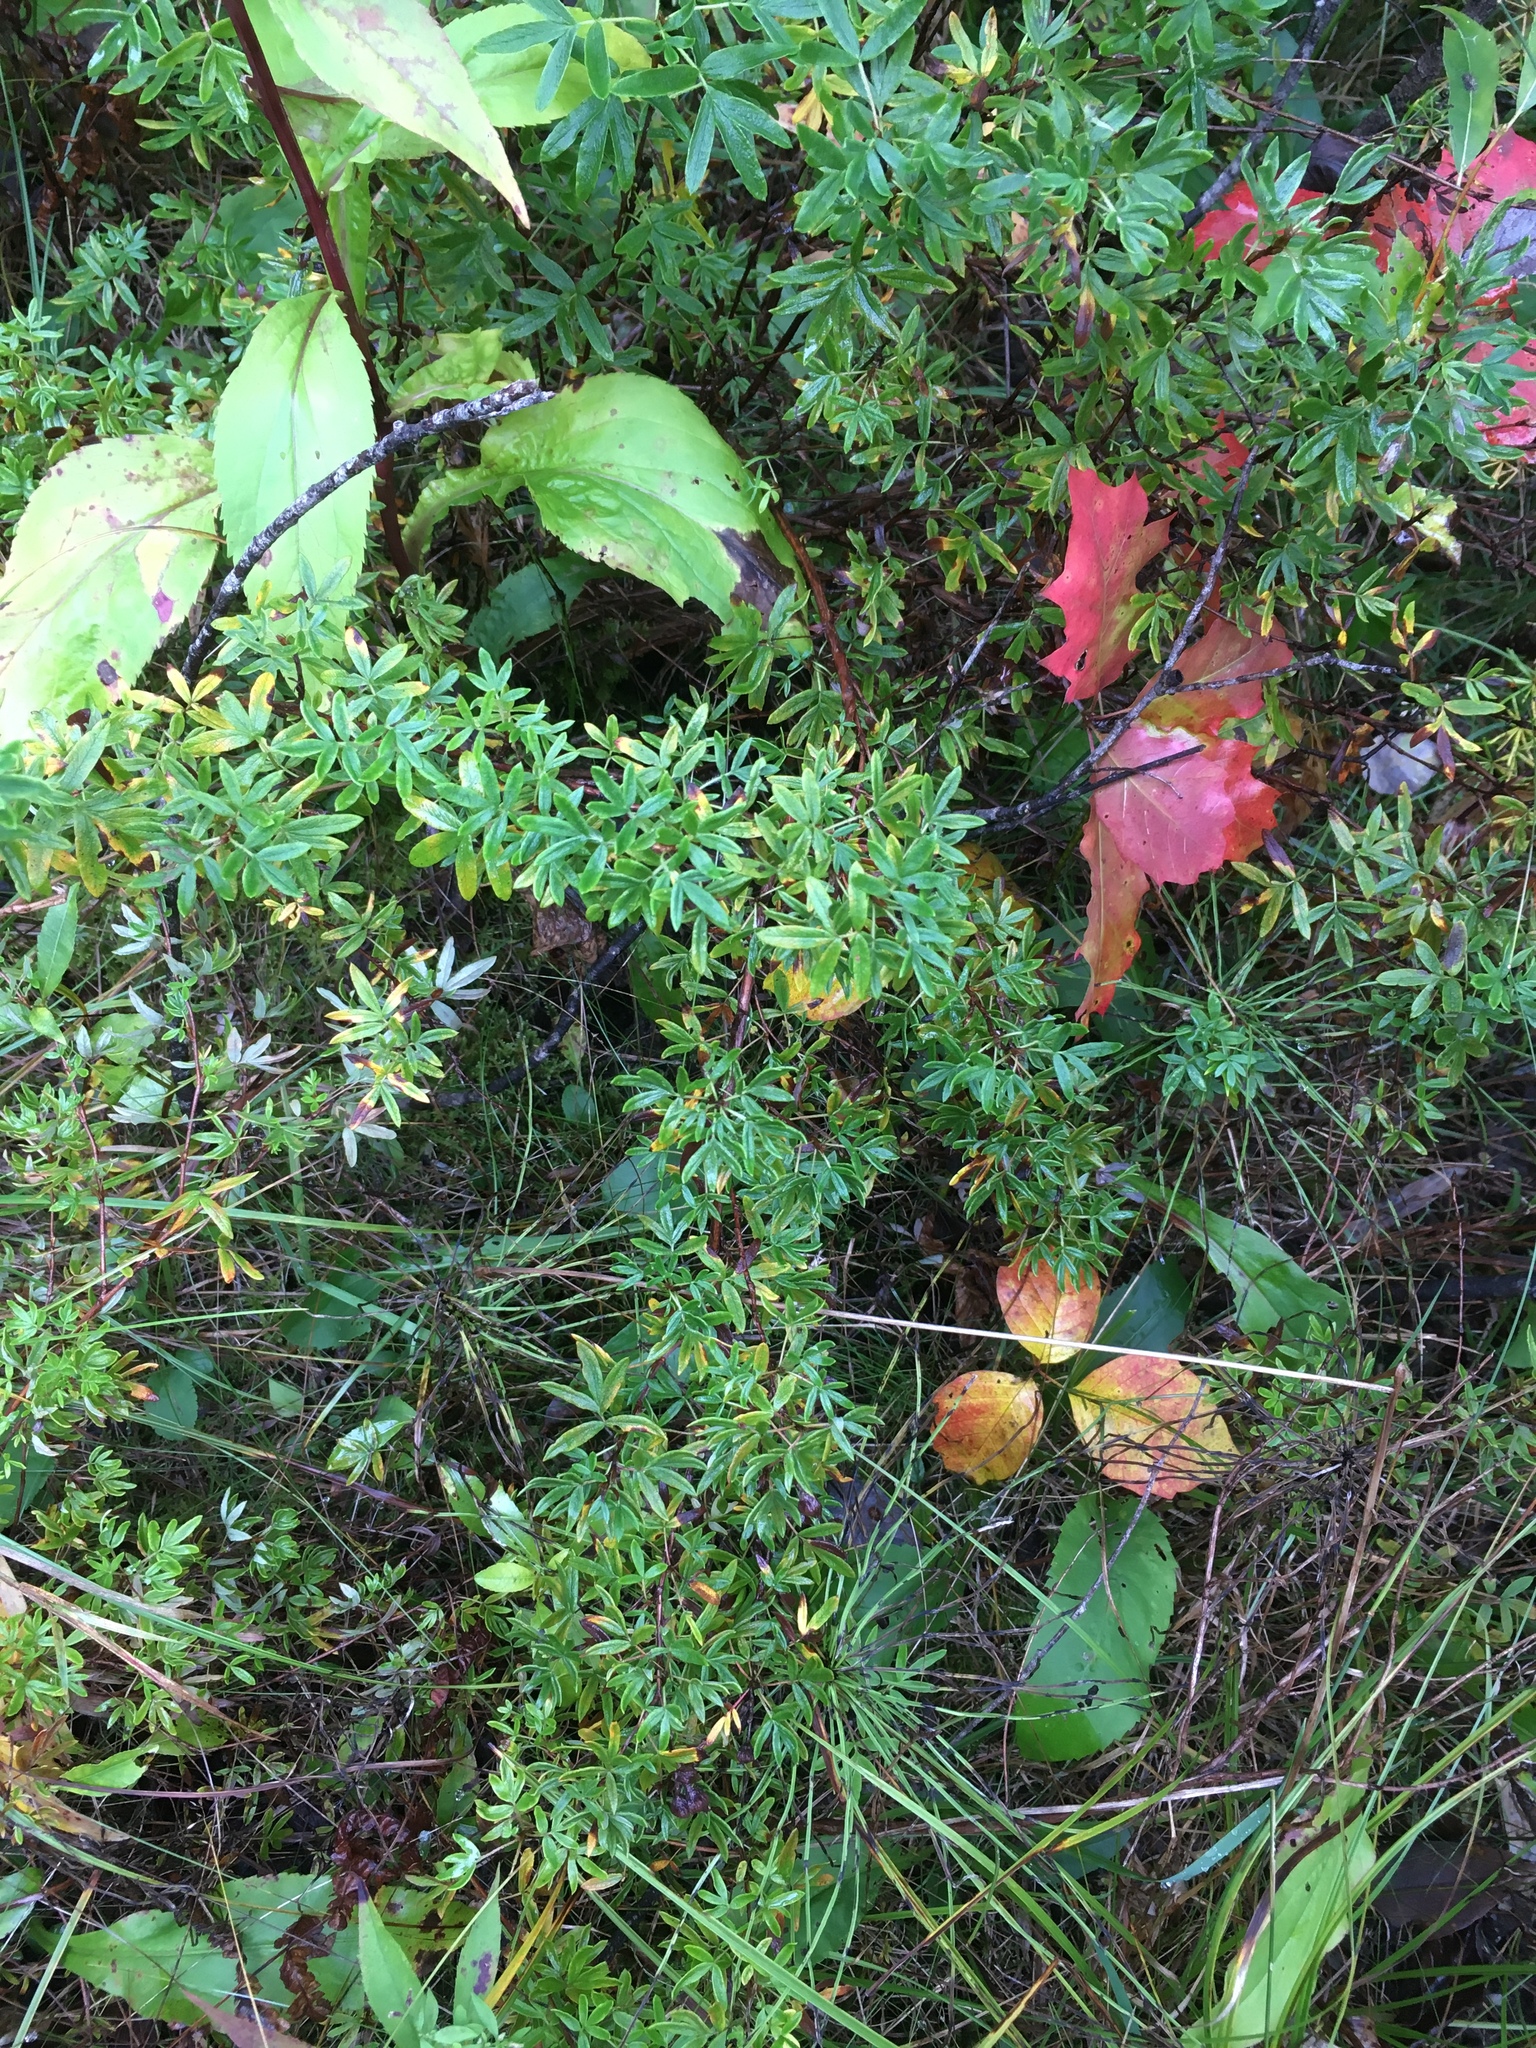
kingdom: Plantae
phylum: Tracheophyta
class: Magnoliopsida
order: Rosales
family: Rosaceae
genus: Dasiphora
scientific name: Dasiphora fruticosa
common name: Shrubby cinquefoil
